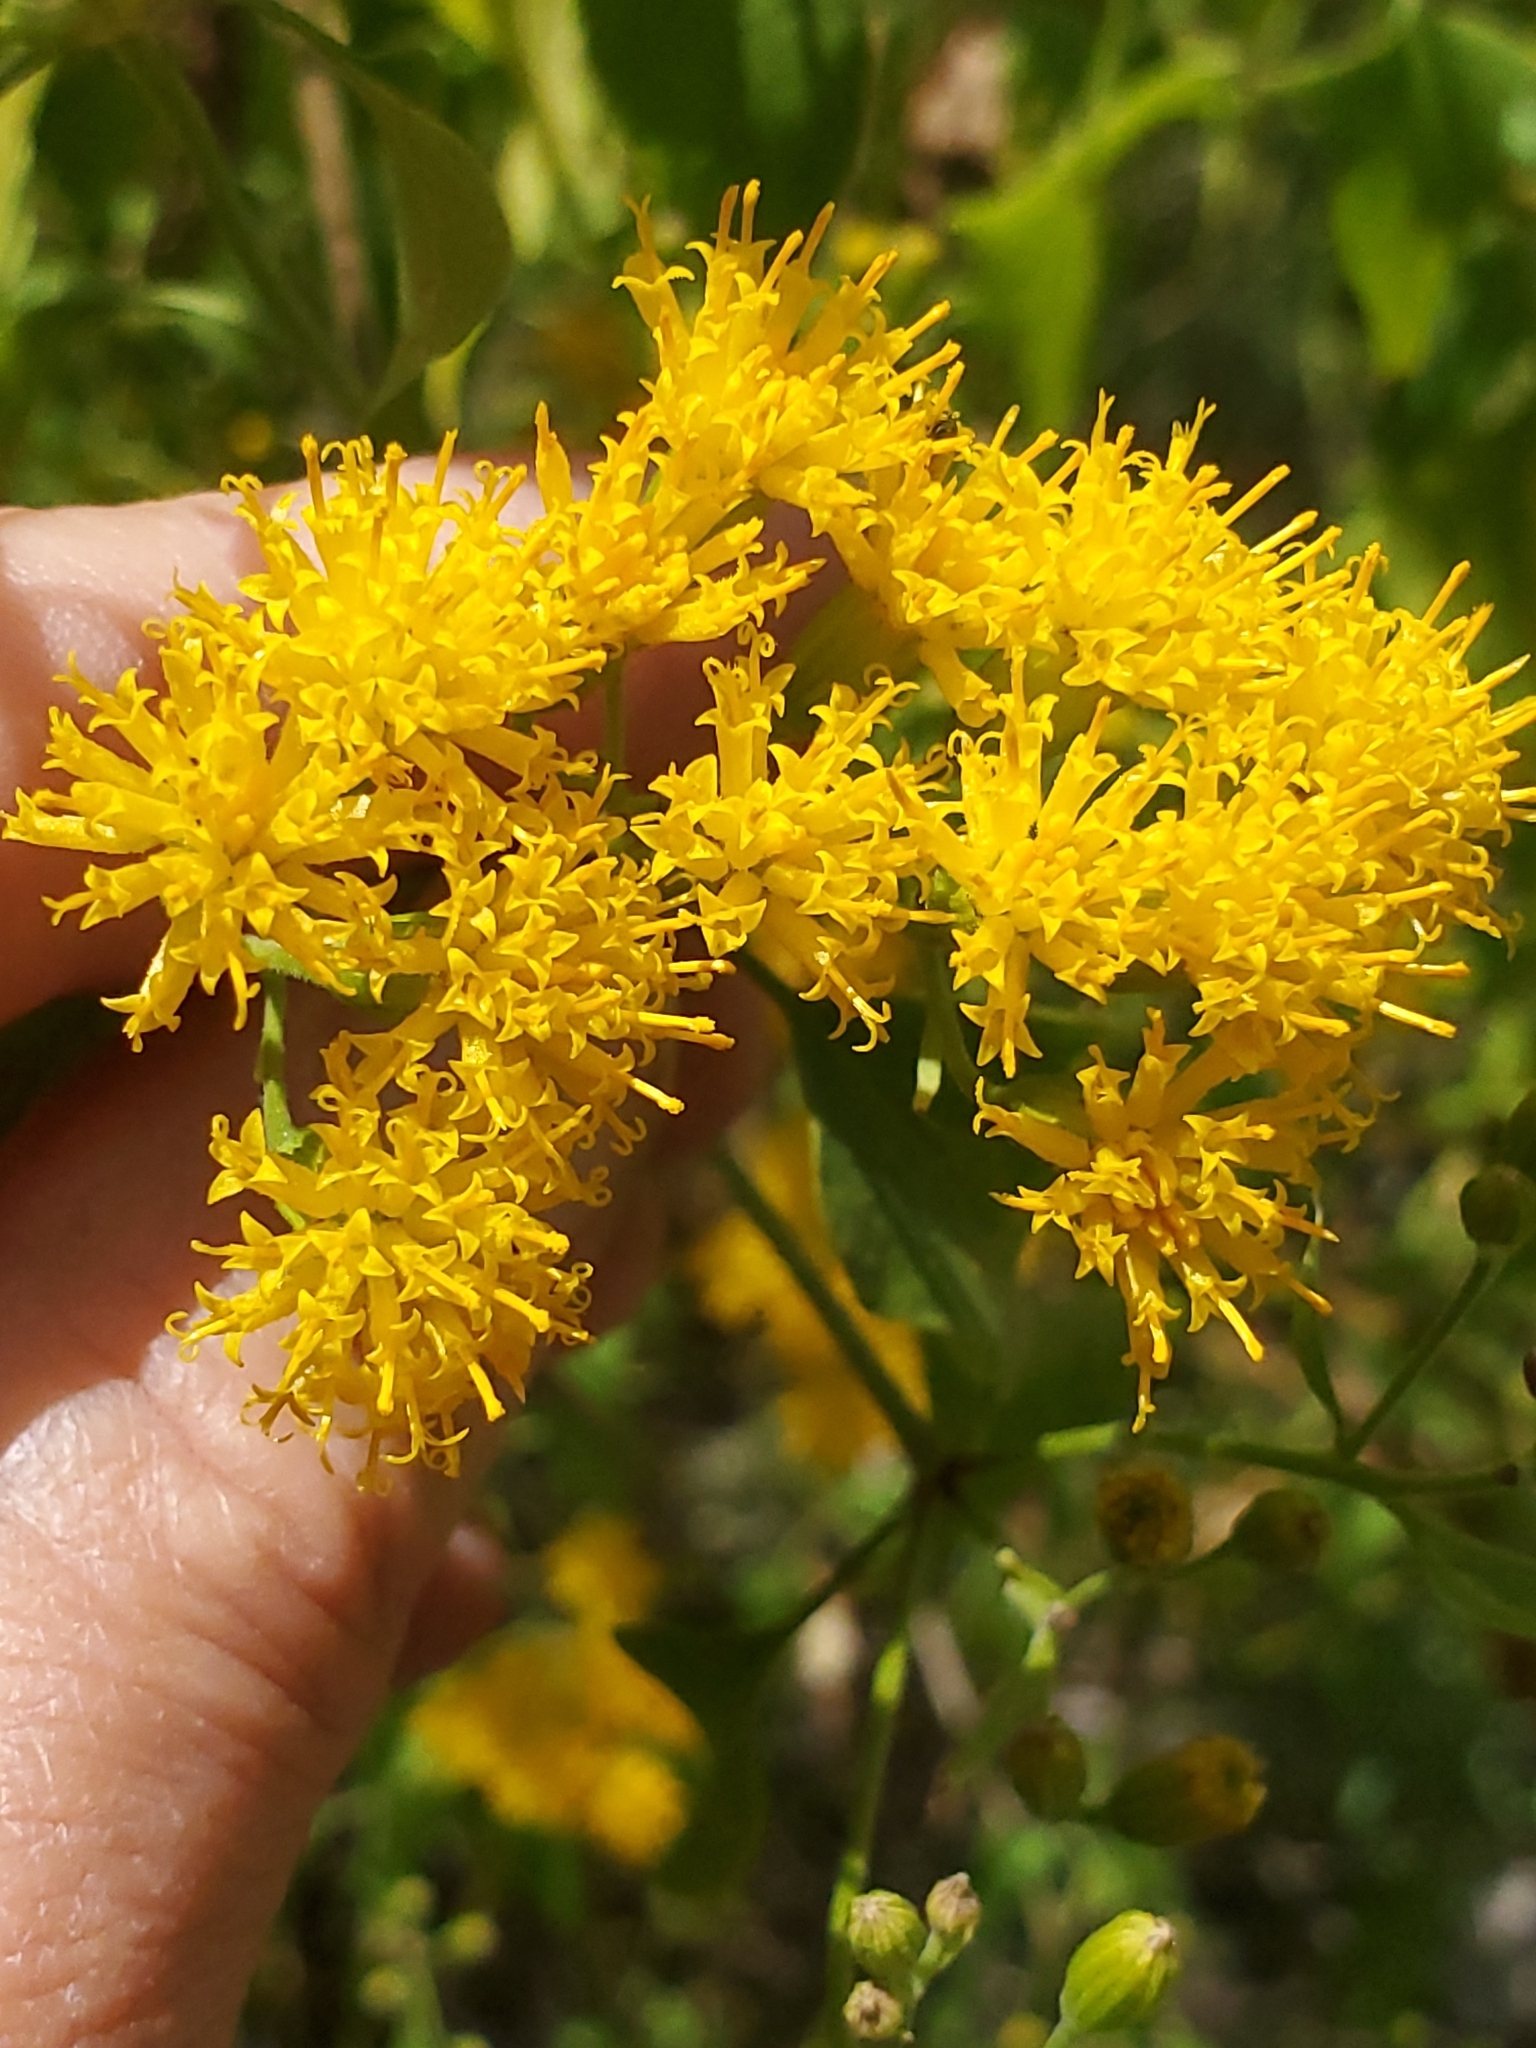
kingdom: Plantae
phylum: Tracheophyta
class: Magnoliopsida
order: Asterales
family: Asteraceae
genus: Pericome
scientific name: Pericome caudata
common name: Taperleaf
